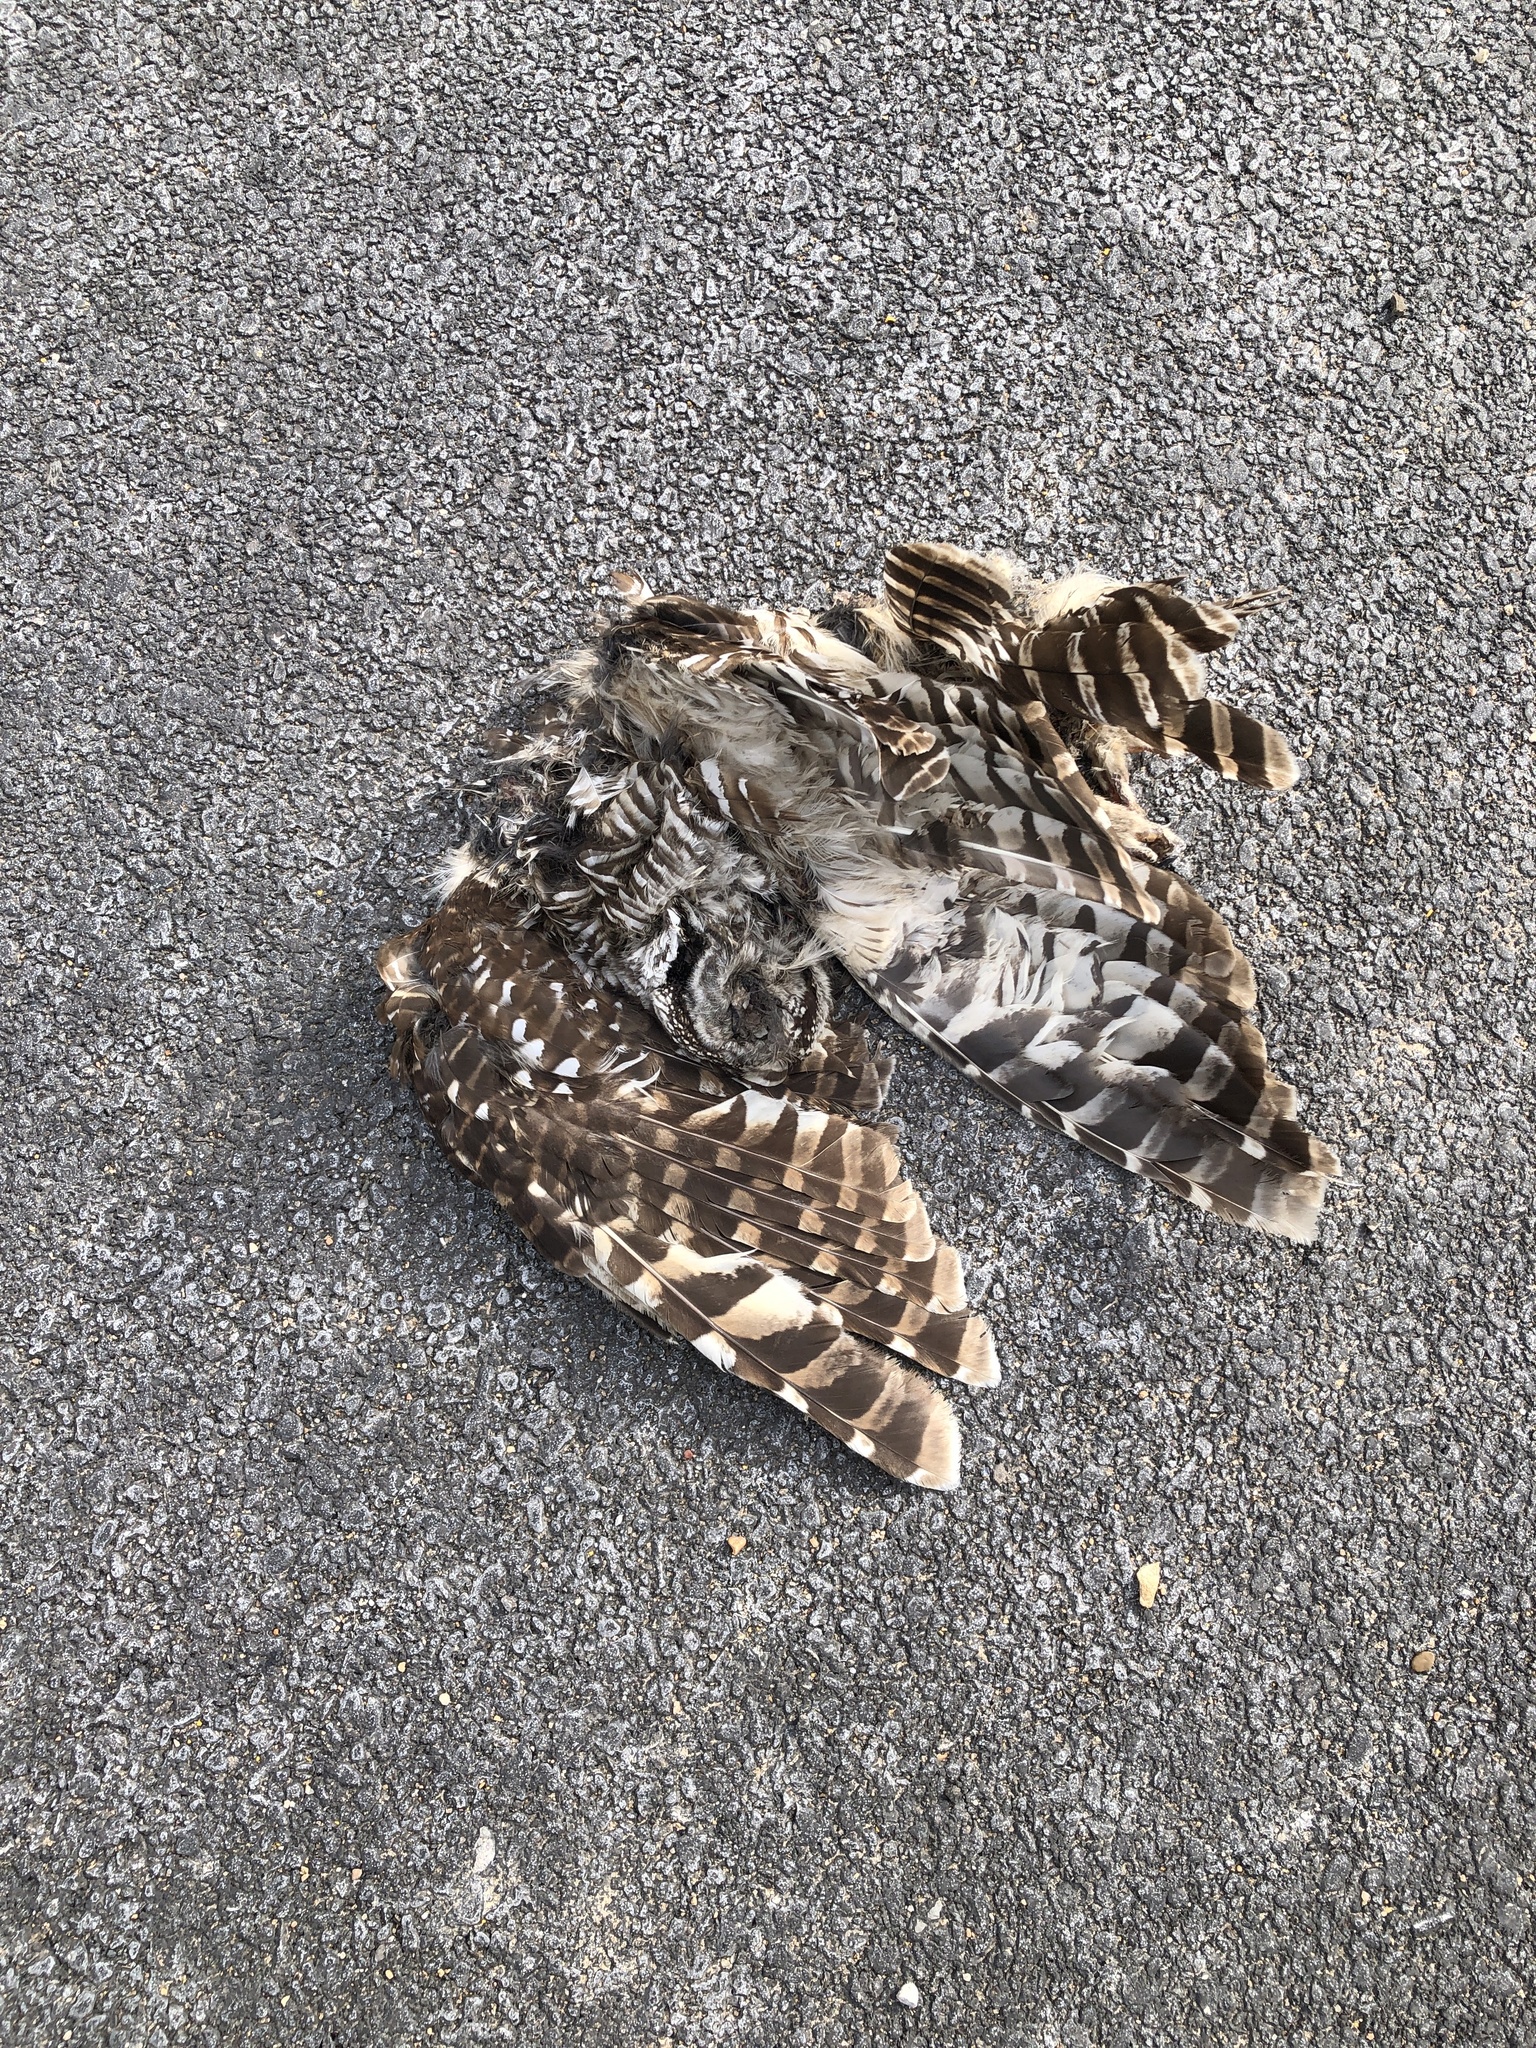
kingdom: Animalia
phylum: Chordata
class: Aves
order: Strigiformes
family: Strigidae
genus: Strix
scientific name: Strix varia
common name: Barred owl
